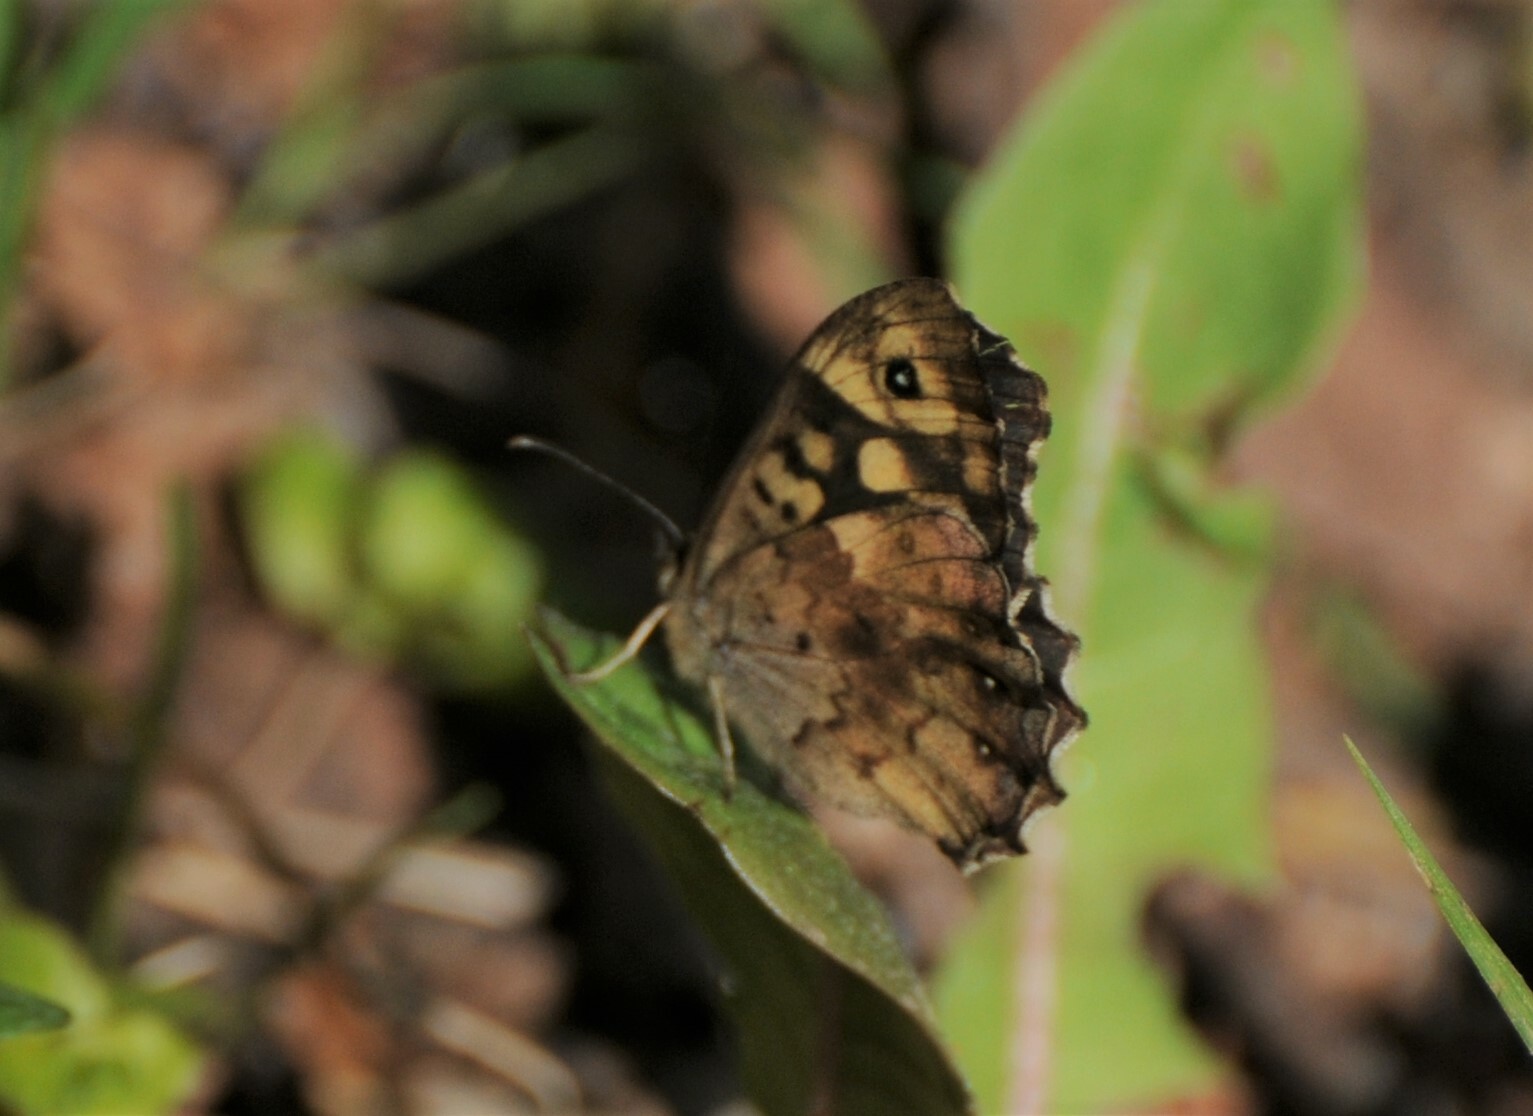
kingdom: Animalia
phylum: Arthropoda
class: Insecta
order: Lepidoptera
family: Nymphalidae
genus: Pararge
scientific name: Pararge aegeria
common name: Speckled wood
